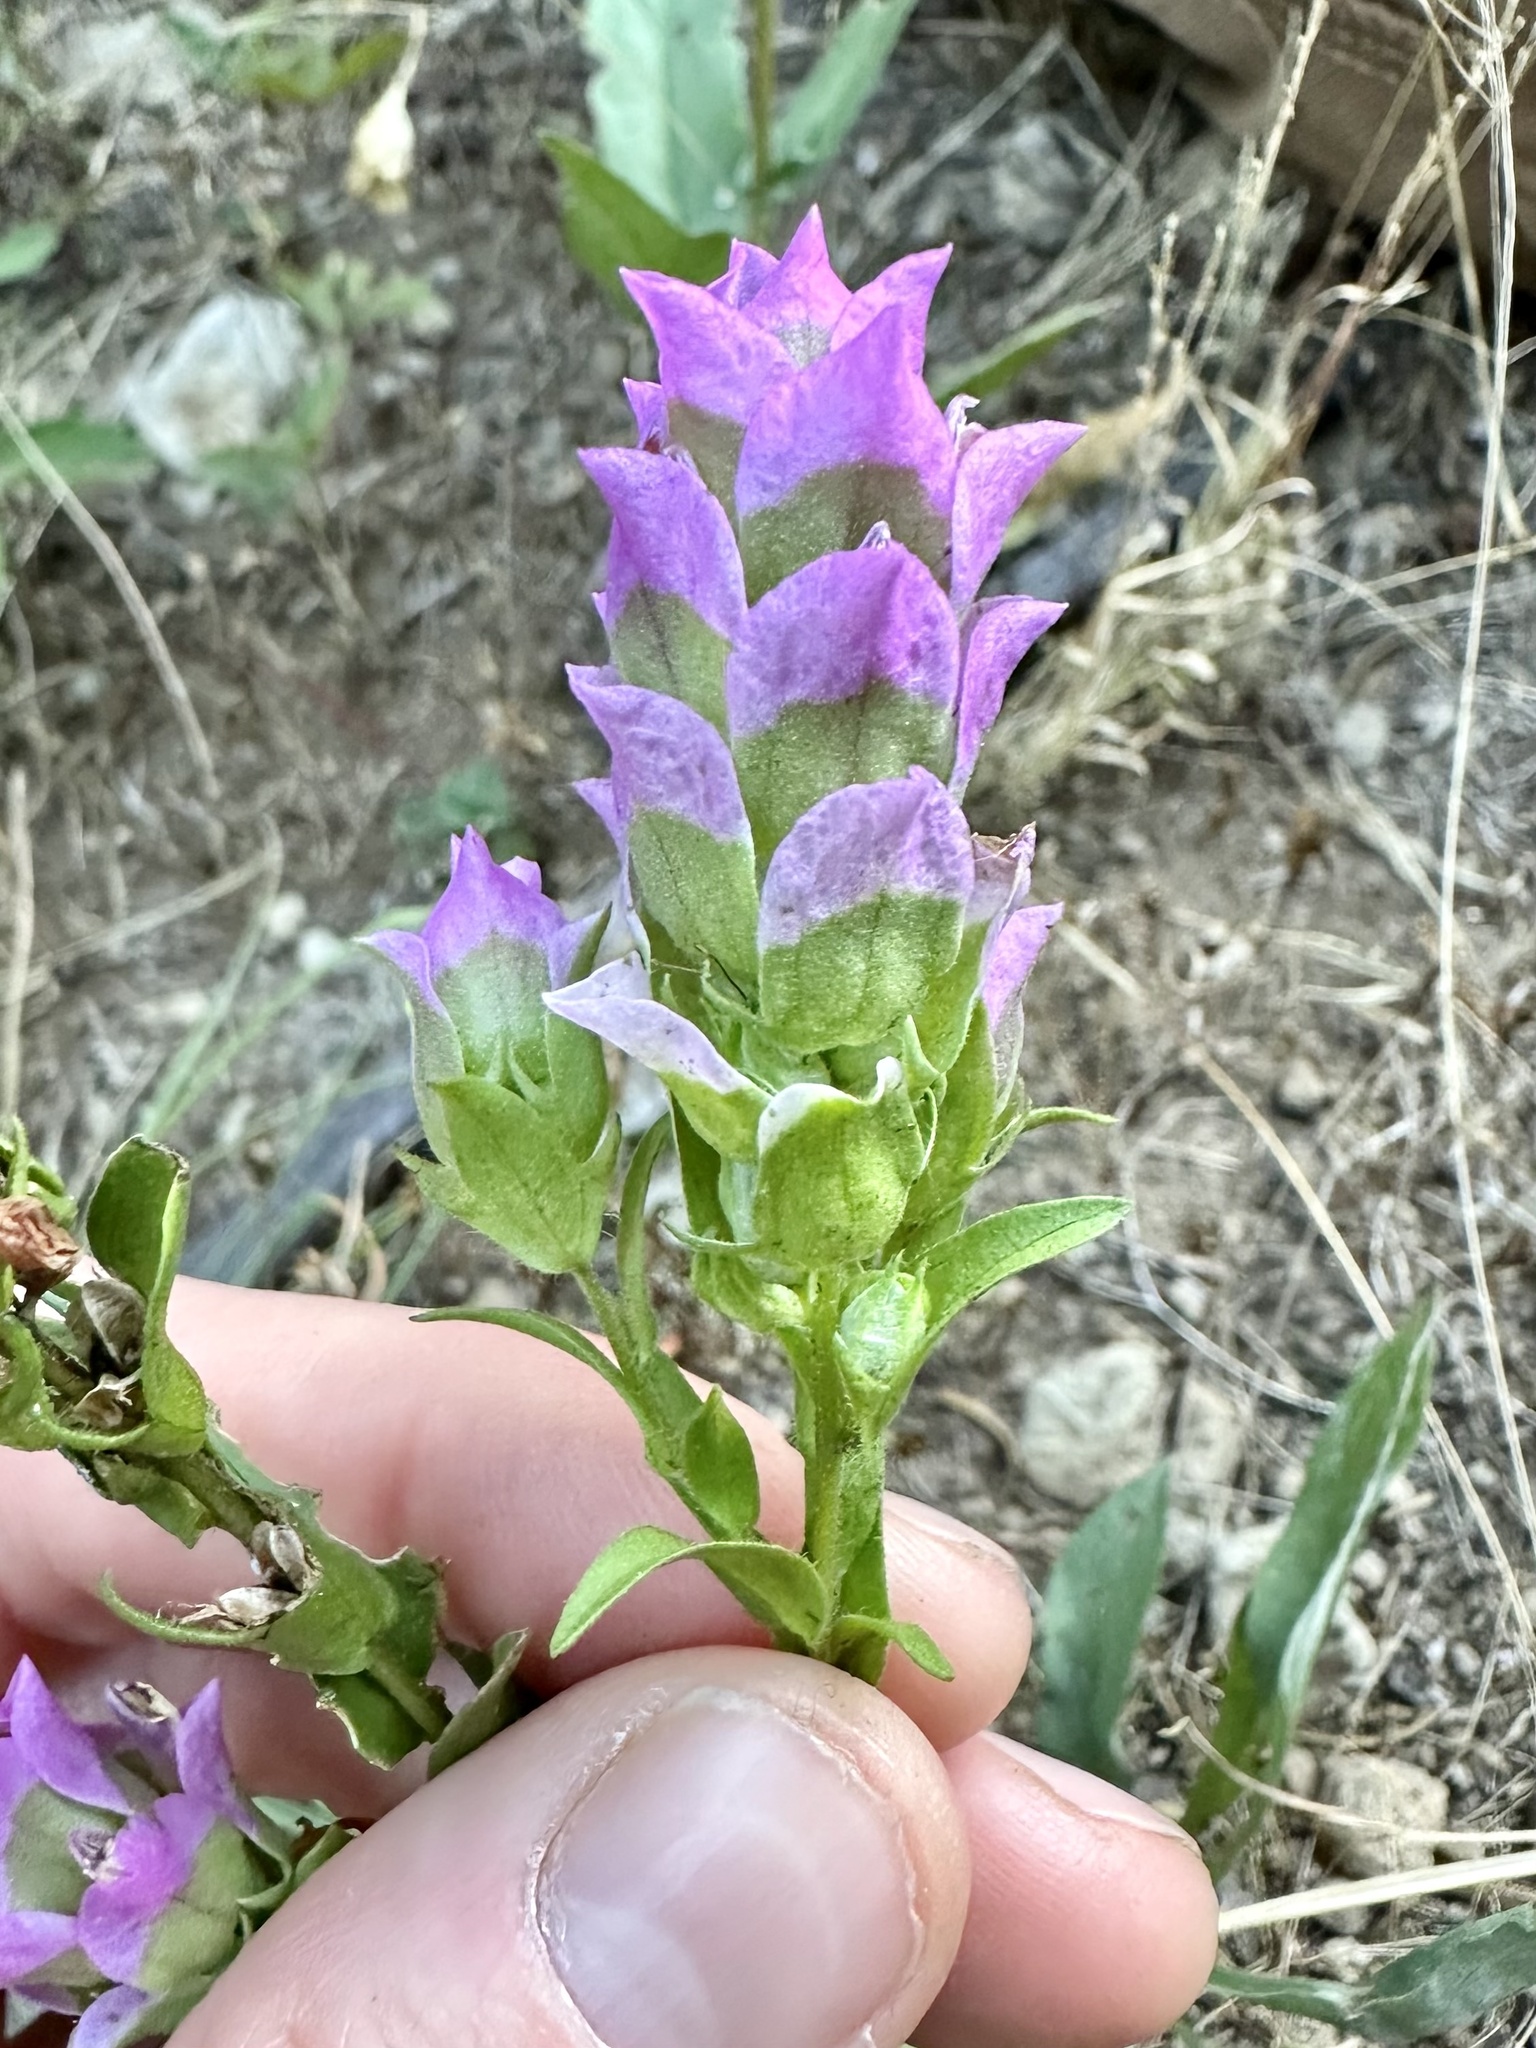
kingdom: Plantae
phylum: Tracheophyta
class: Magnoliopsida
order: Lamiales
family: Orobanchaceae
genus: Orthocarpus
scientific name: Orthocarpus imbricatus
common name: Mountain owl's-clover
